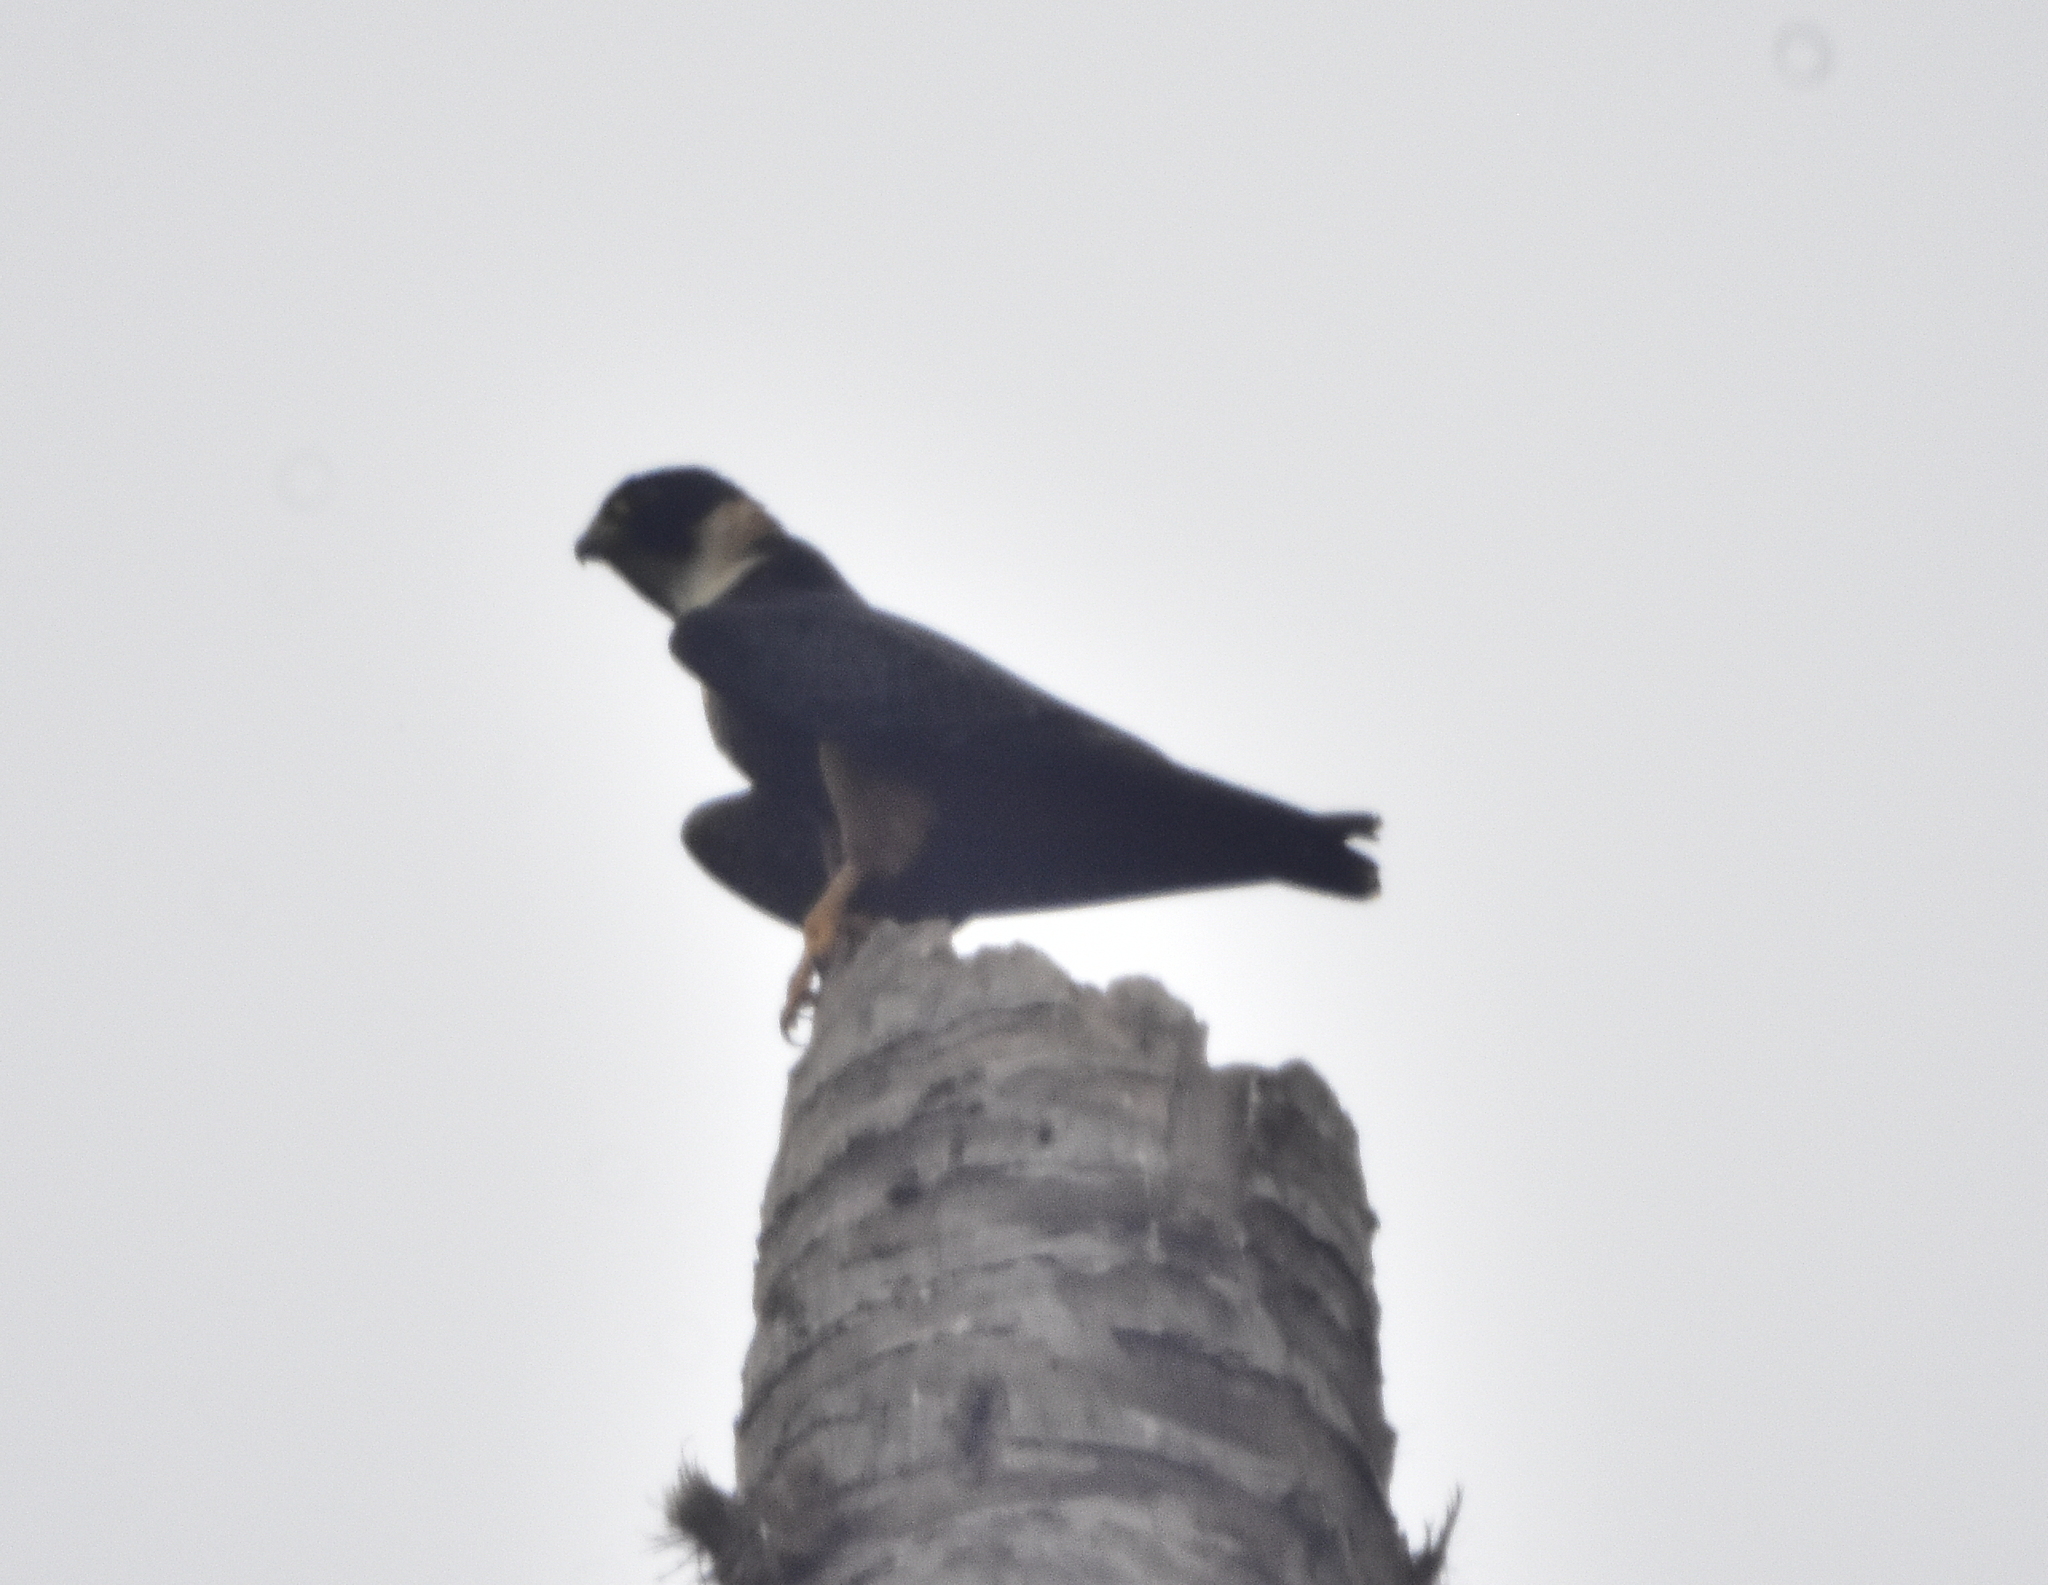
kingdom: Animalia
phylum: Chordata
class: Aves
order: Falconiformes
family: Falconidae
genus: Falco
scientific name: Falco rufigularis
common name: Bat falcon
